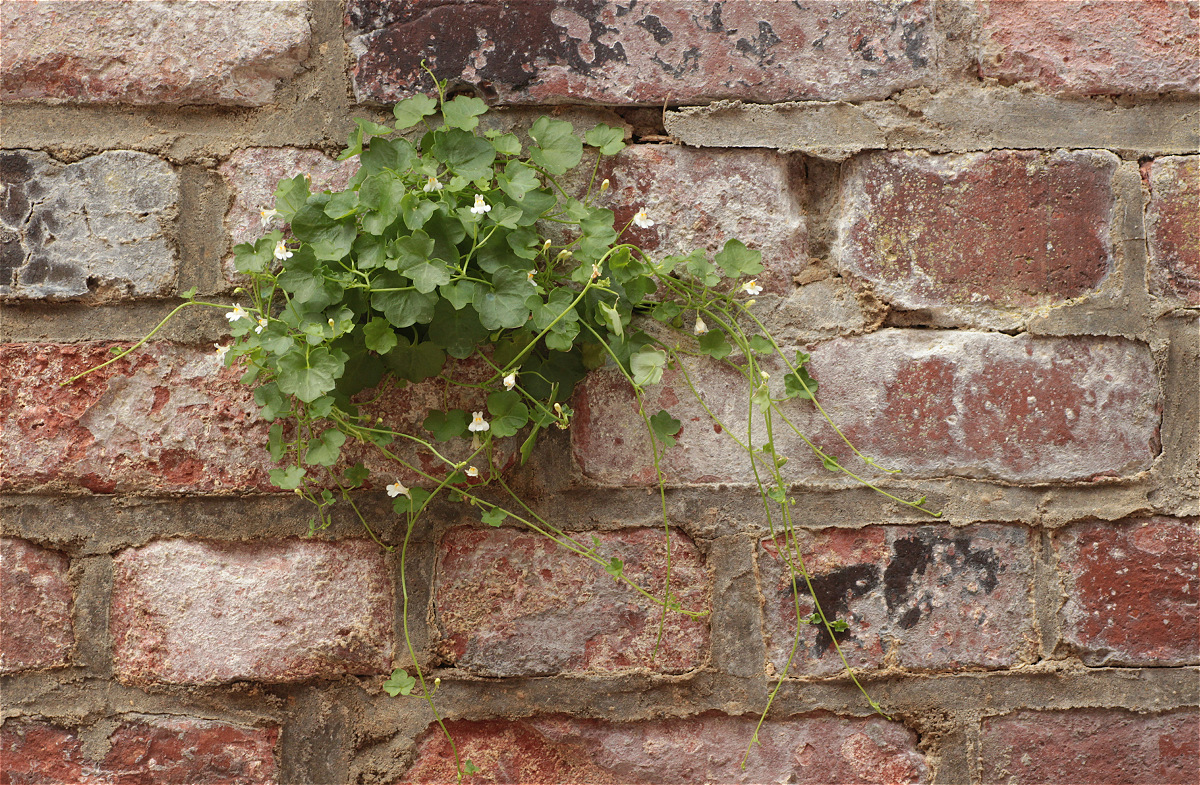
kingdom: Plantae
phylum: Tracheophyta
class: Magnoliopsida
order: Lamiales
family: Plantaginaceae
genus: Cymbalaria
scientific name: Cymbalaria muralis
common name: Ivy-leaved toadflax
